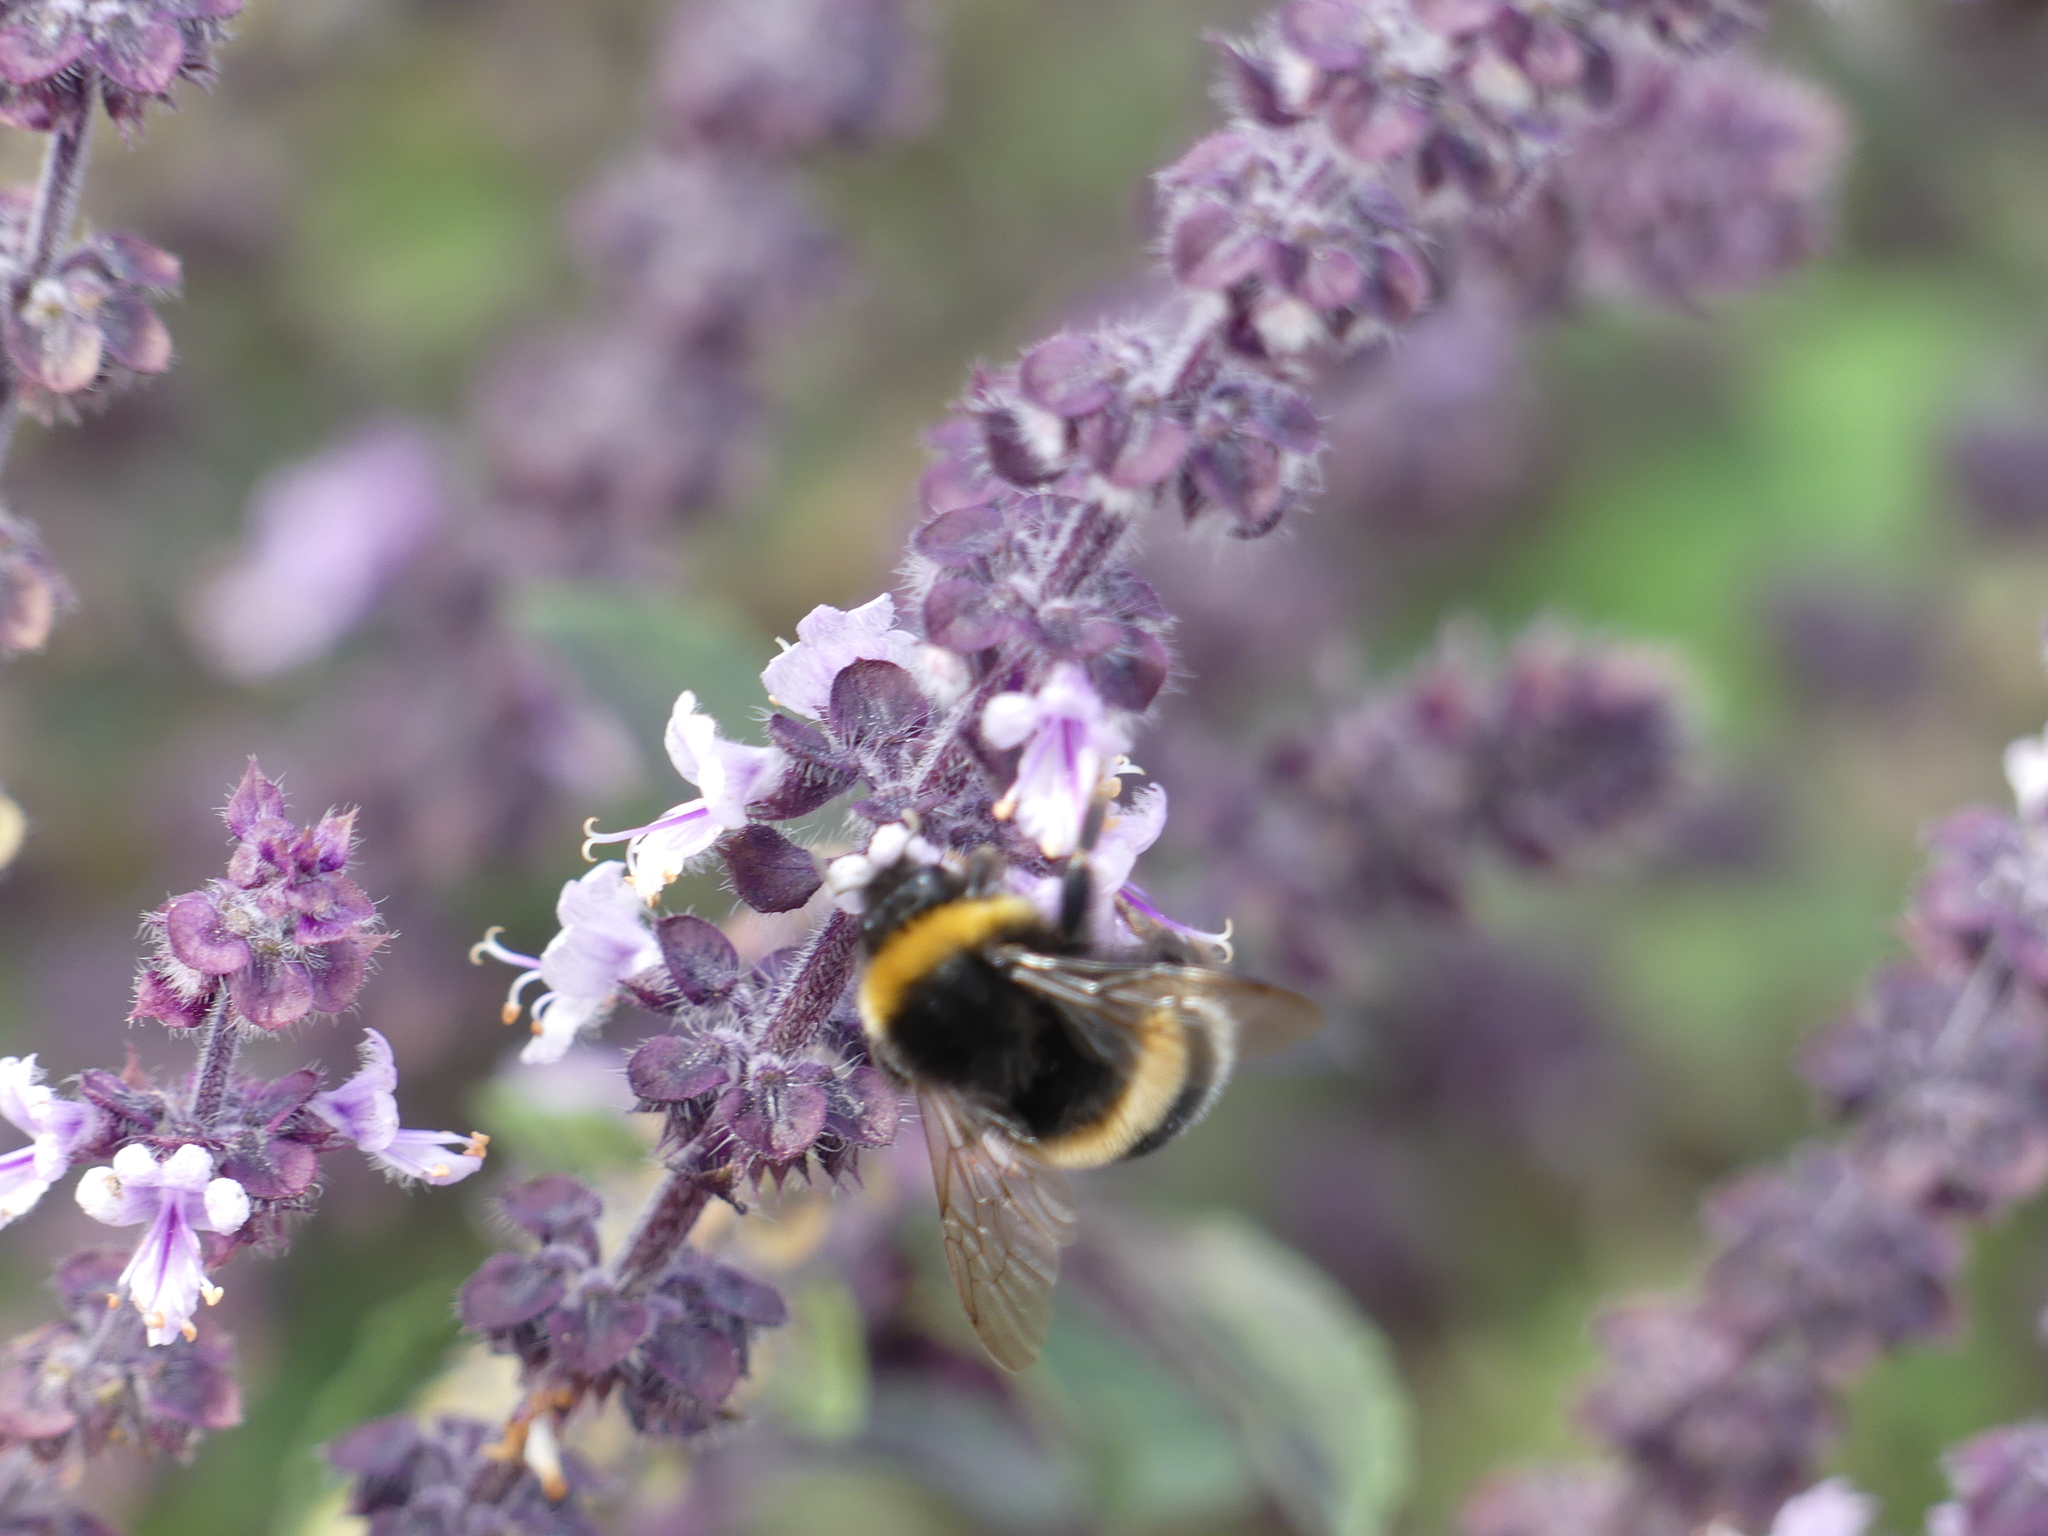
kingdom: Animalia
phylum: Arthropoda
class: Insecta
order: Hymenoptera
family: Apidae
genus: Bombus
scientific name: Bombus
